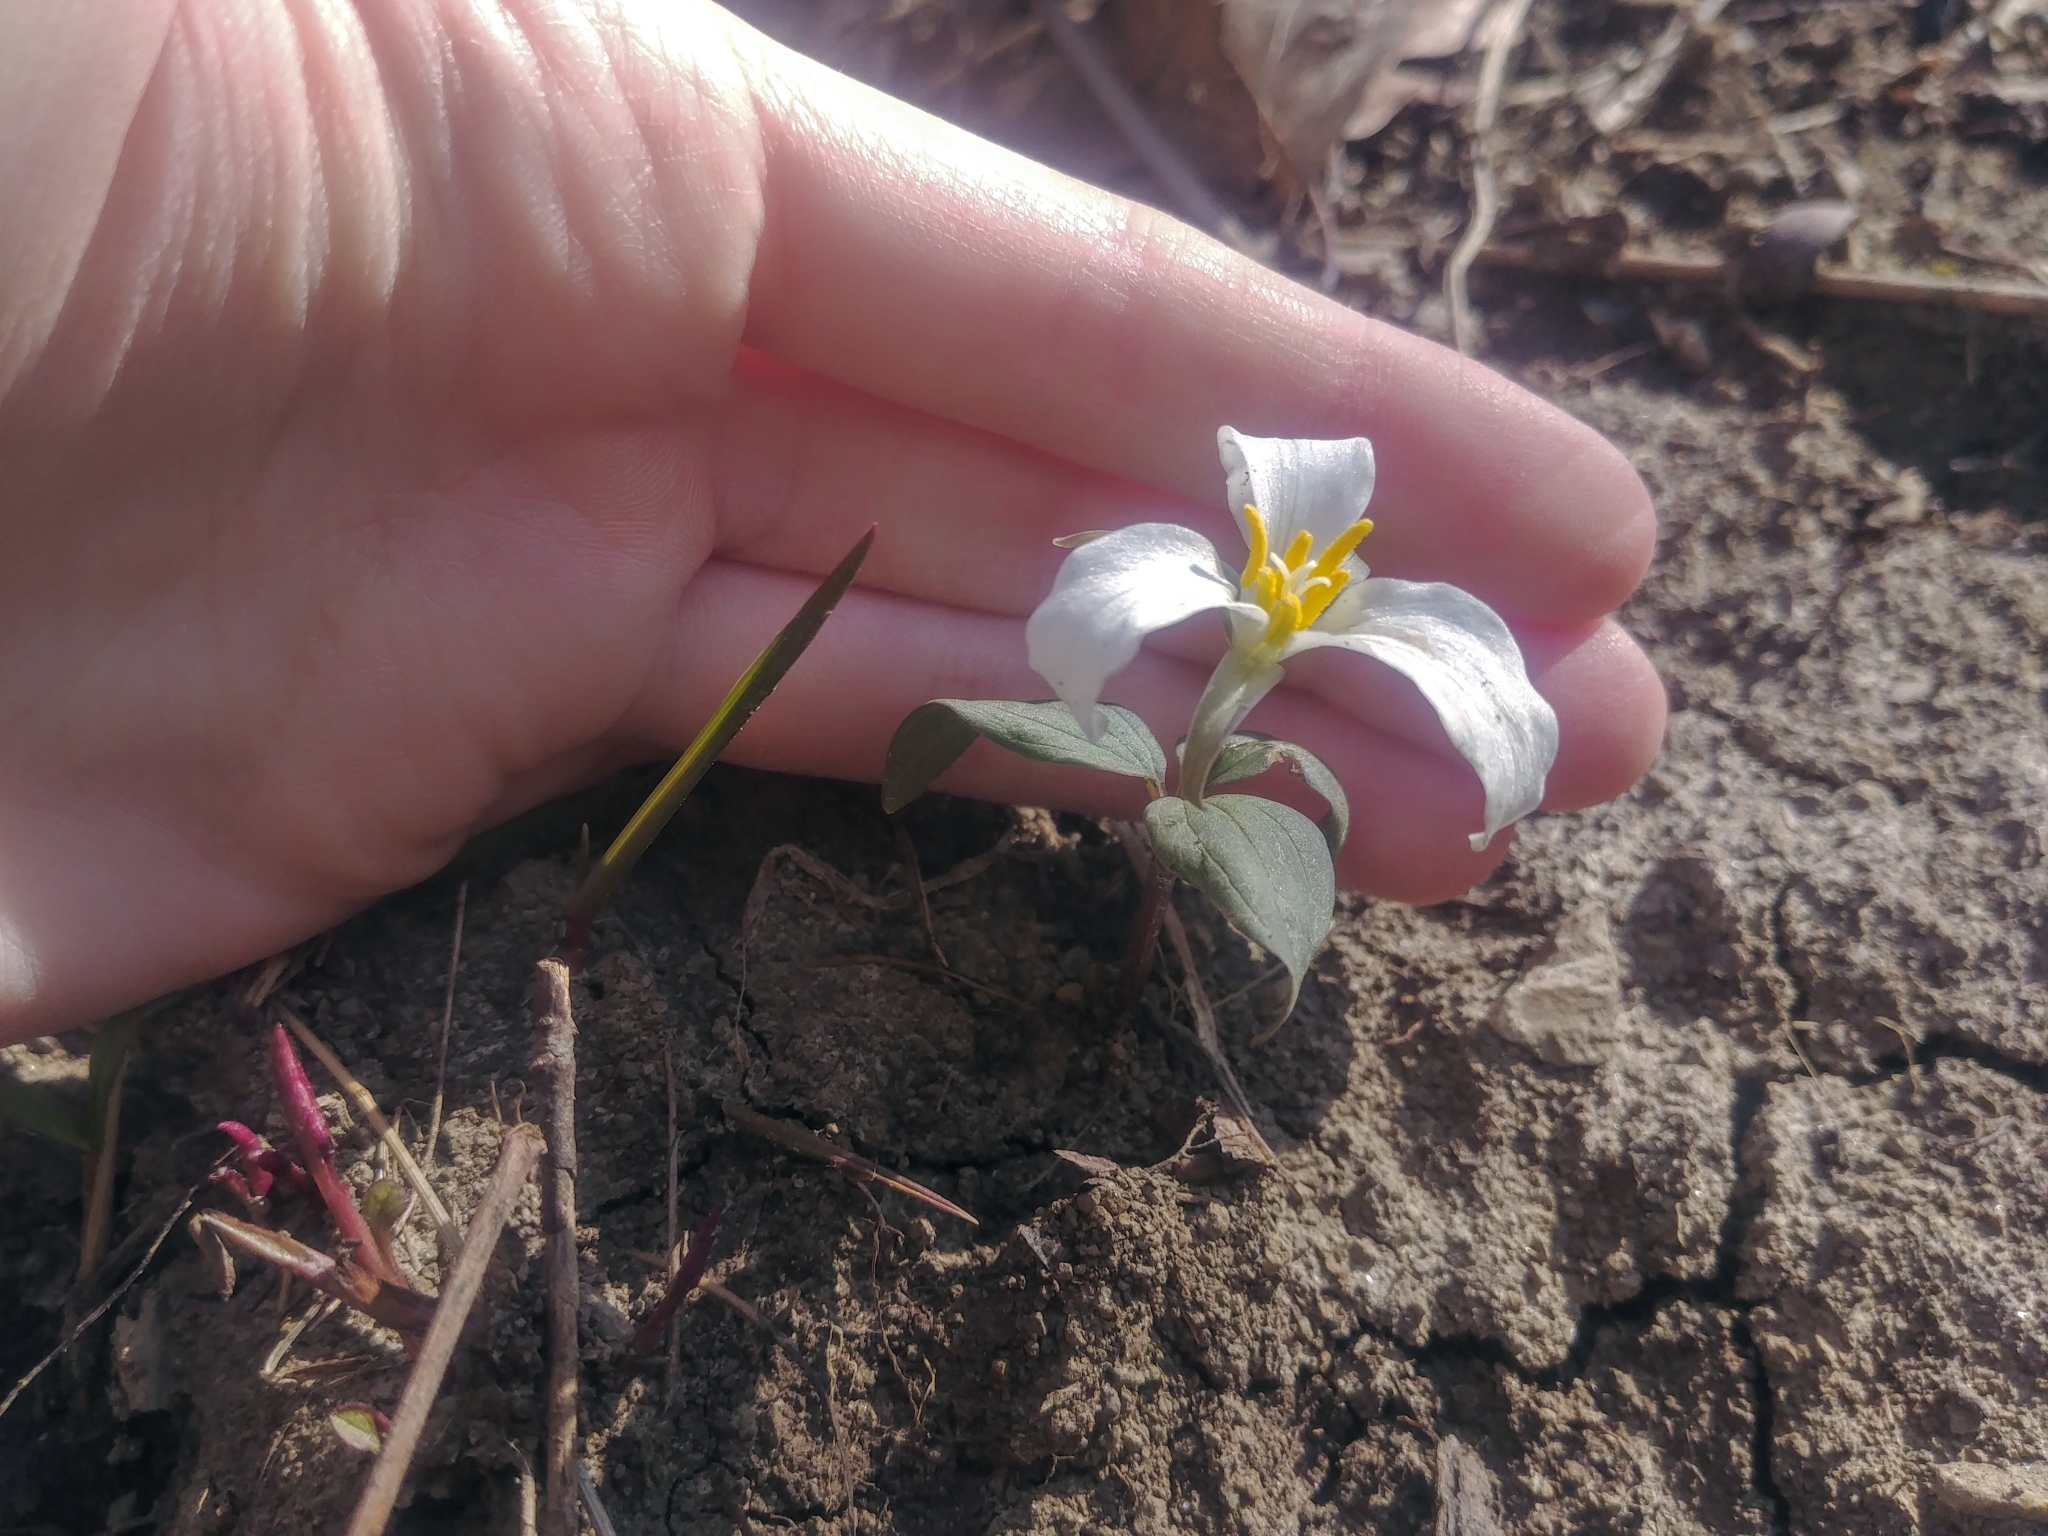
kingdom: Plantae
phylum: Tracheophyta
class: Liliopsida
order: Liliales
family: Melanthiaceae
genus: Trillium
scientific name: Trillium nivale
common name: Dwarf white trillium
